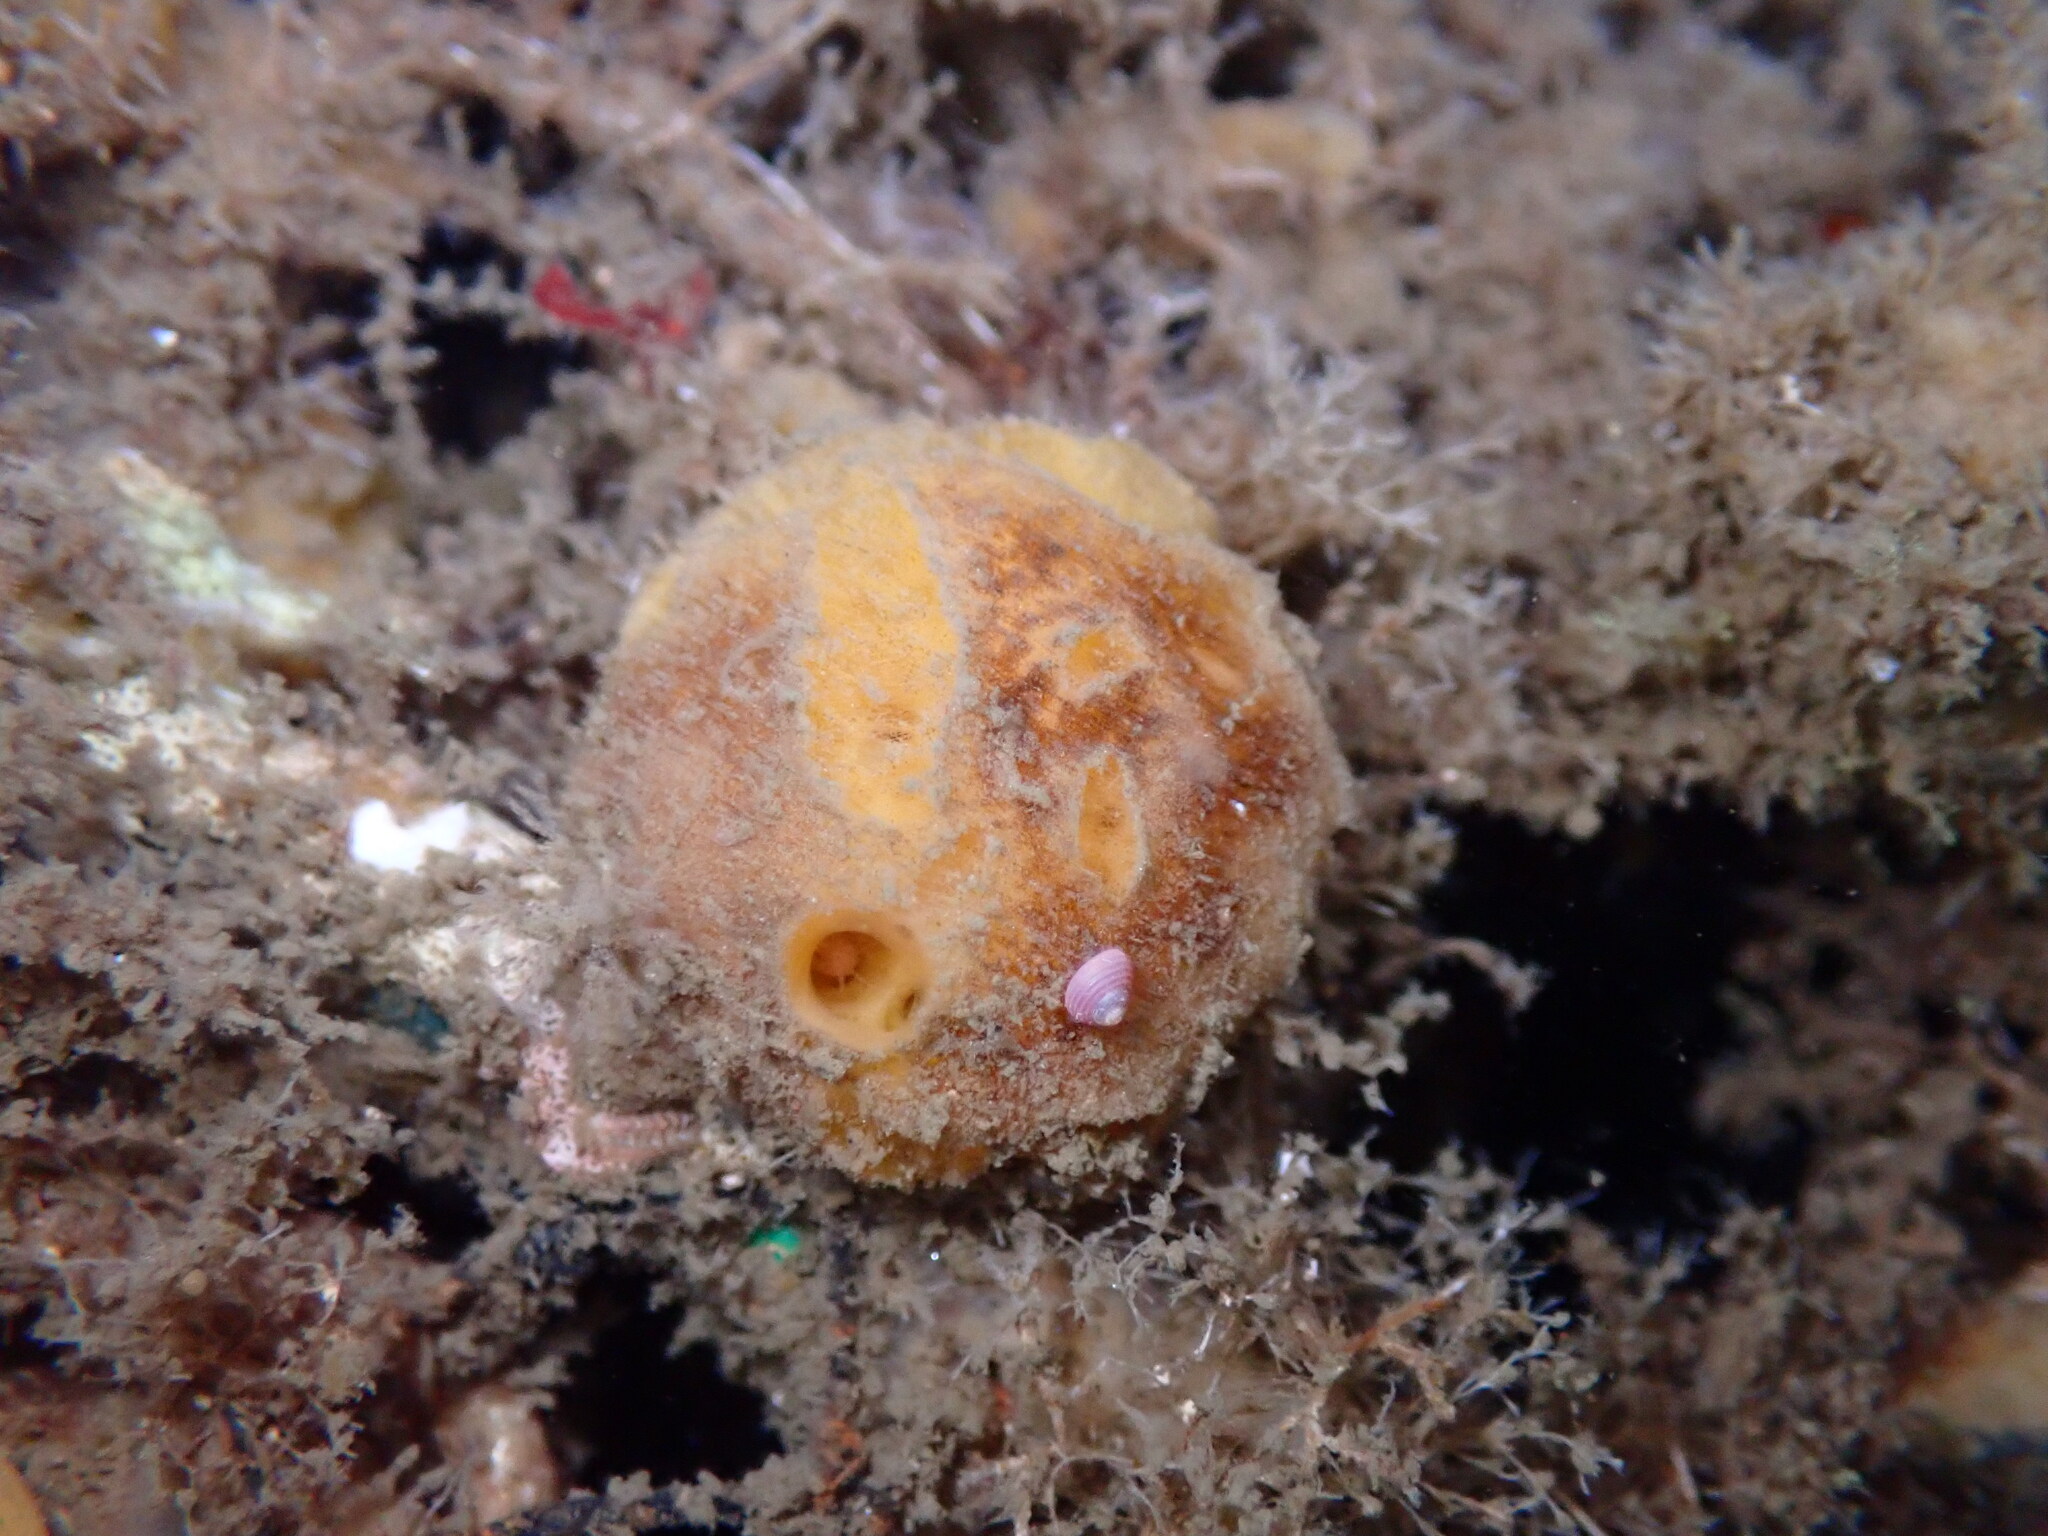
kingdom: Animalia
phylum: Porifera
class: Demospongiae
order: Tethyida
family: Tethyidae
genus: Tethya
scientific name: Tethya californiana
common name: Orange rough ball horny sponge
